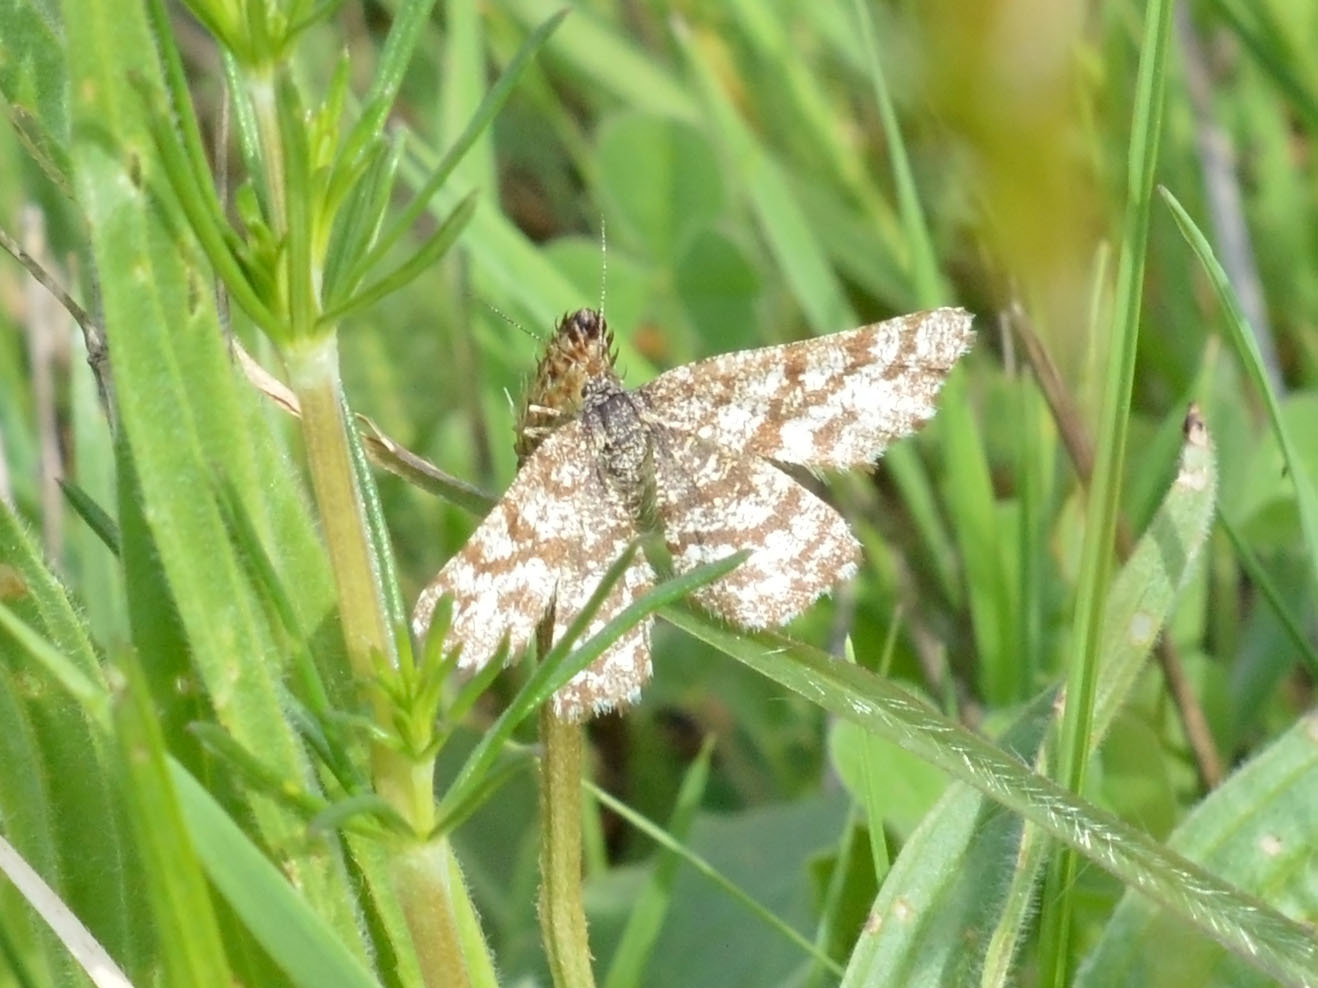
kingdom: Animalia
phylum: Arthropoda
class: Insecta
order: Lepidoptera
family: Geometridae
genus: Ematurga
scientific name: Ematurga atomaria
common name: Common heath
